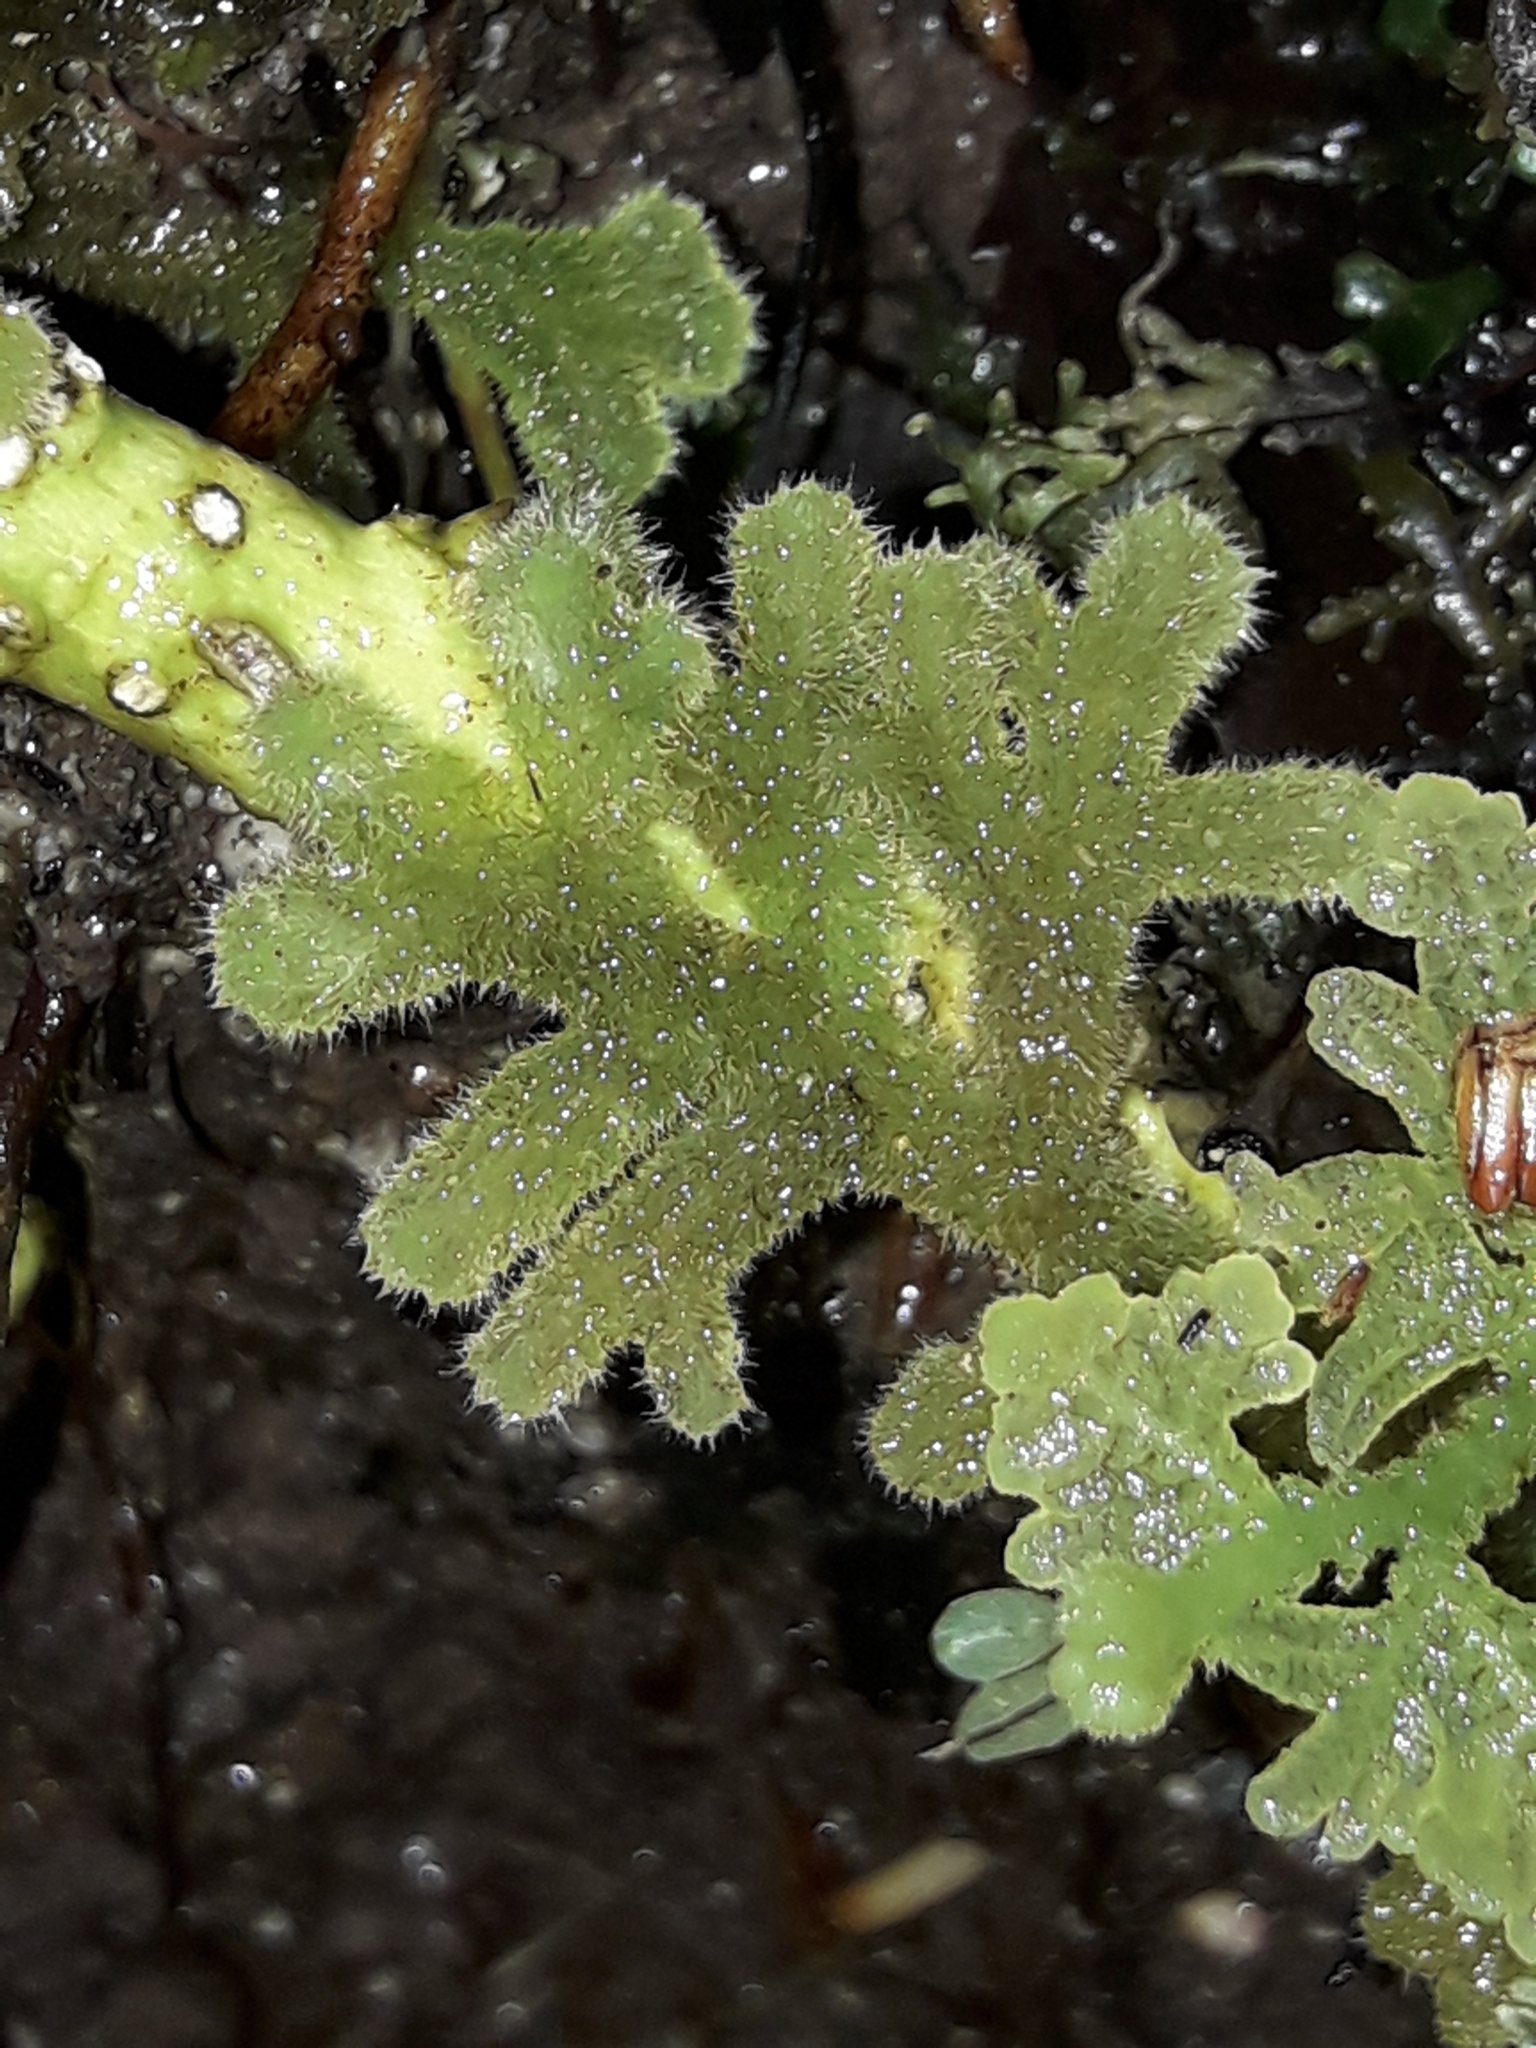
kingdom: Plantae
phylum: Marchantiophyta
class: Jungermanniopsida
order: Jungermanniales
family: Trichocoleaceae
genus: Leiomitra
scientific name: Leiomitra lanata
